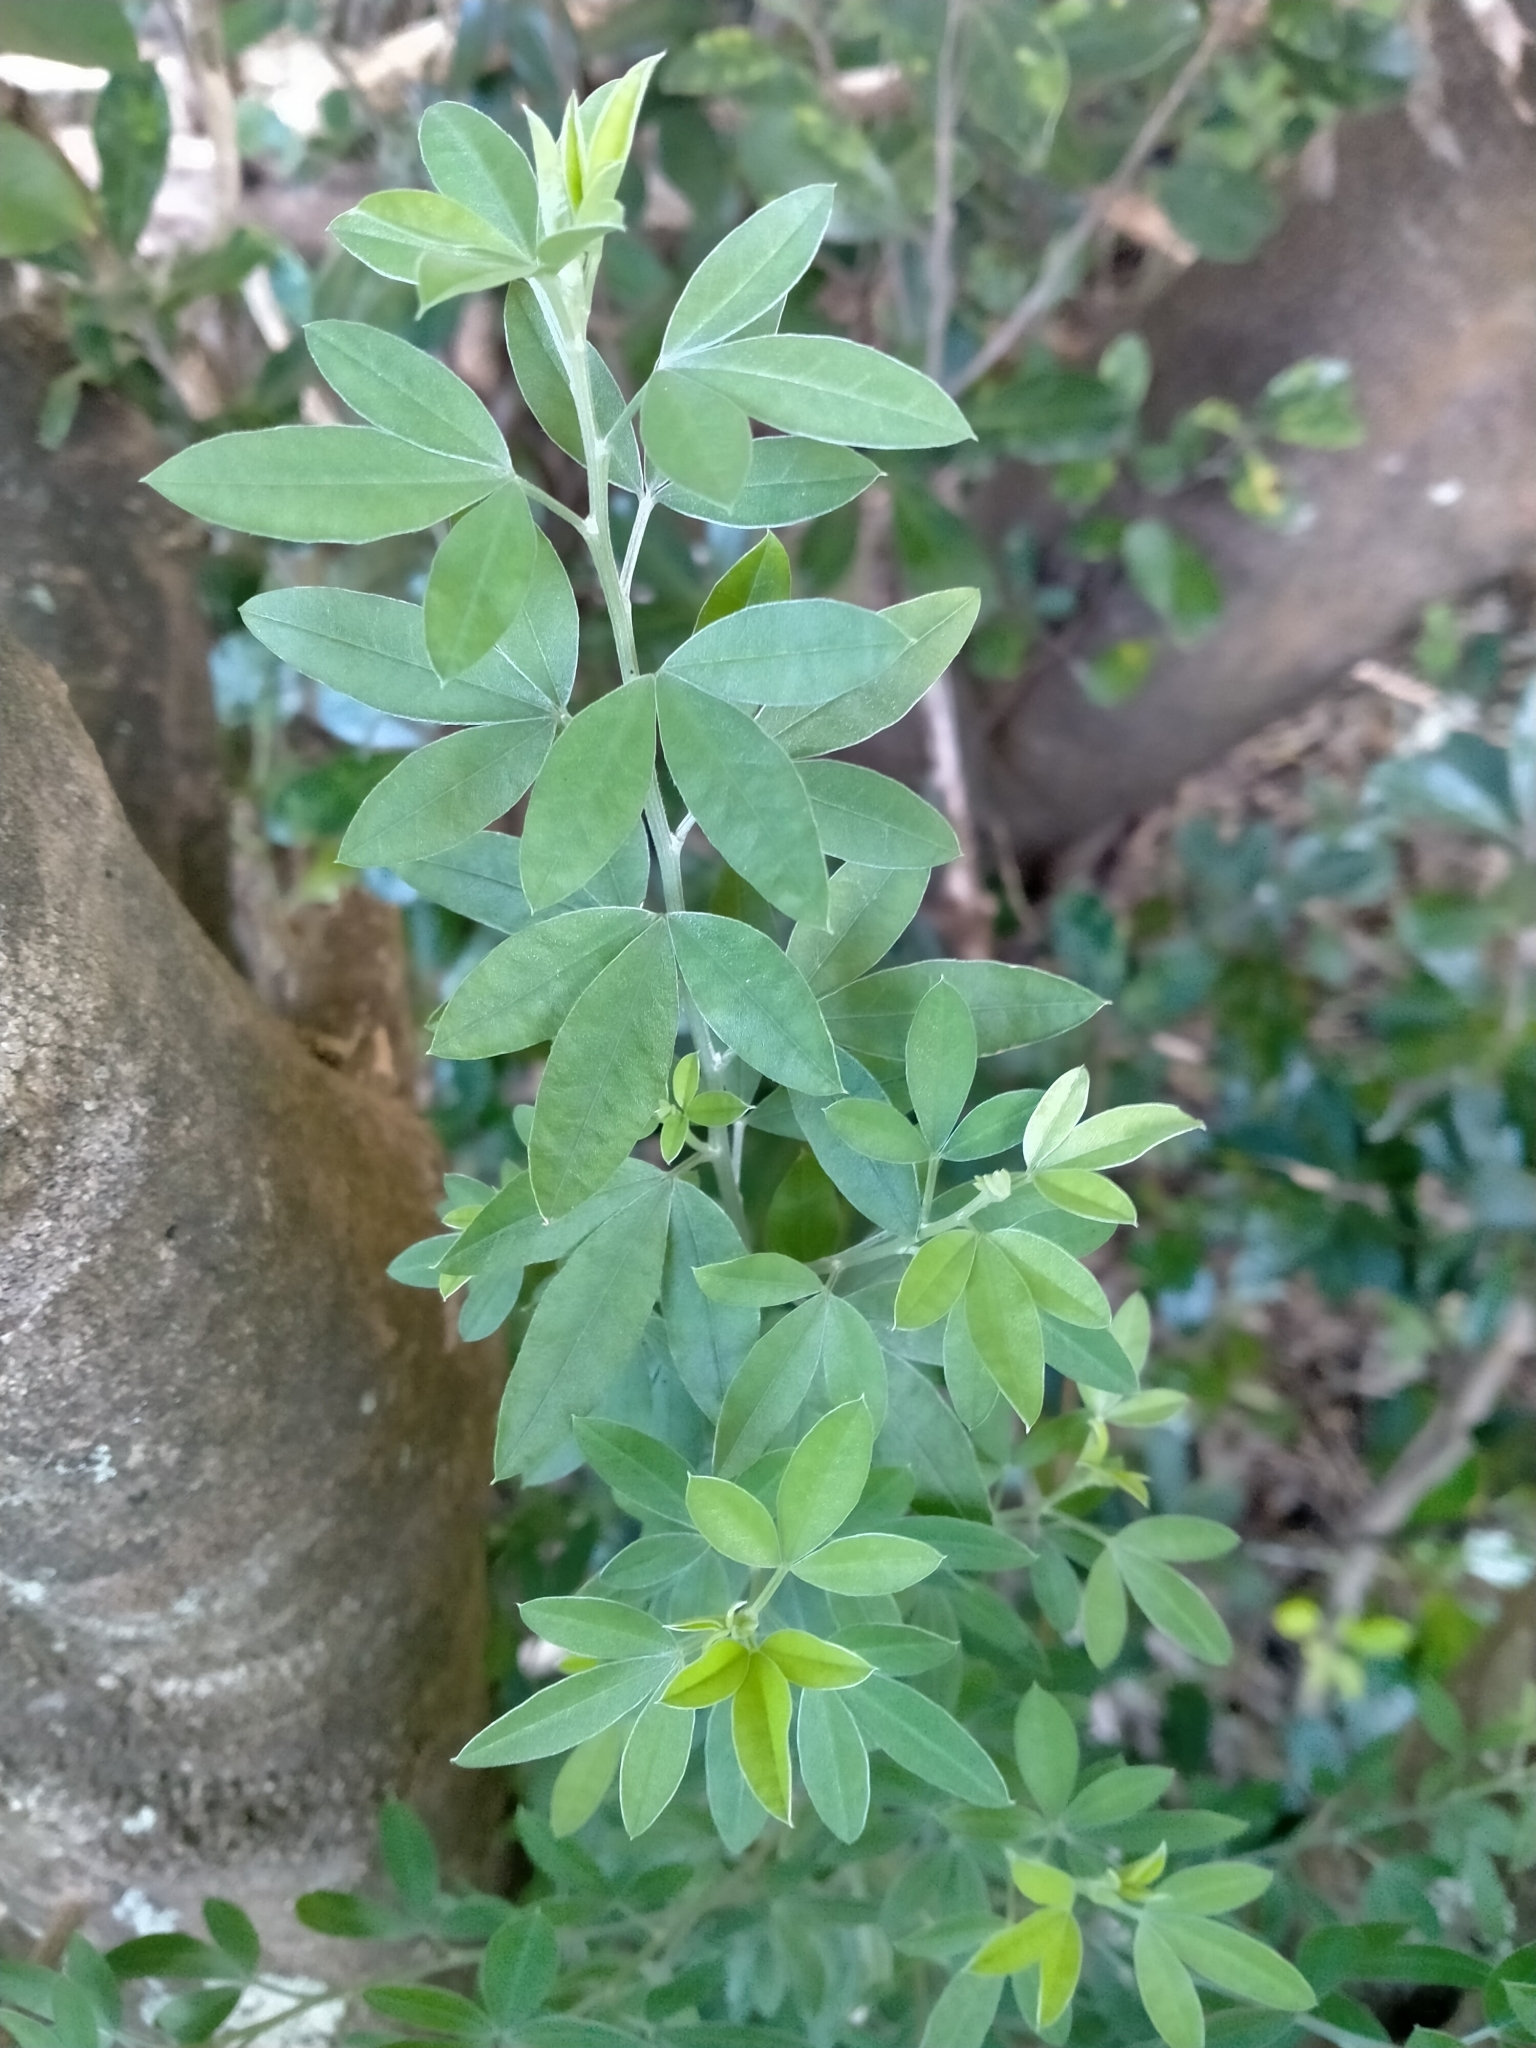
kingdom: Plantae
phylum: Tracheophyta
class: Magnoliopsida
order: Fabales
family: Fabaceae
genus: Chamaecytisus
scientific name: Chamaecytisus prolifer
